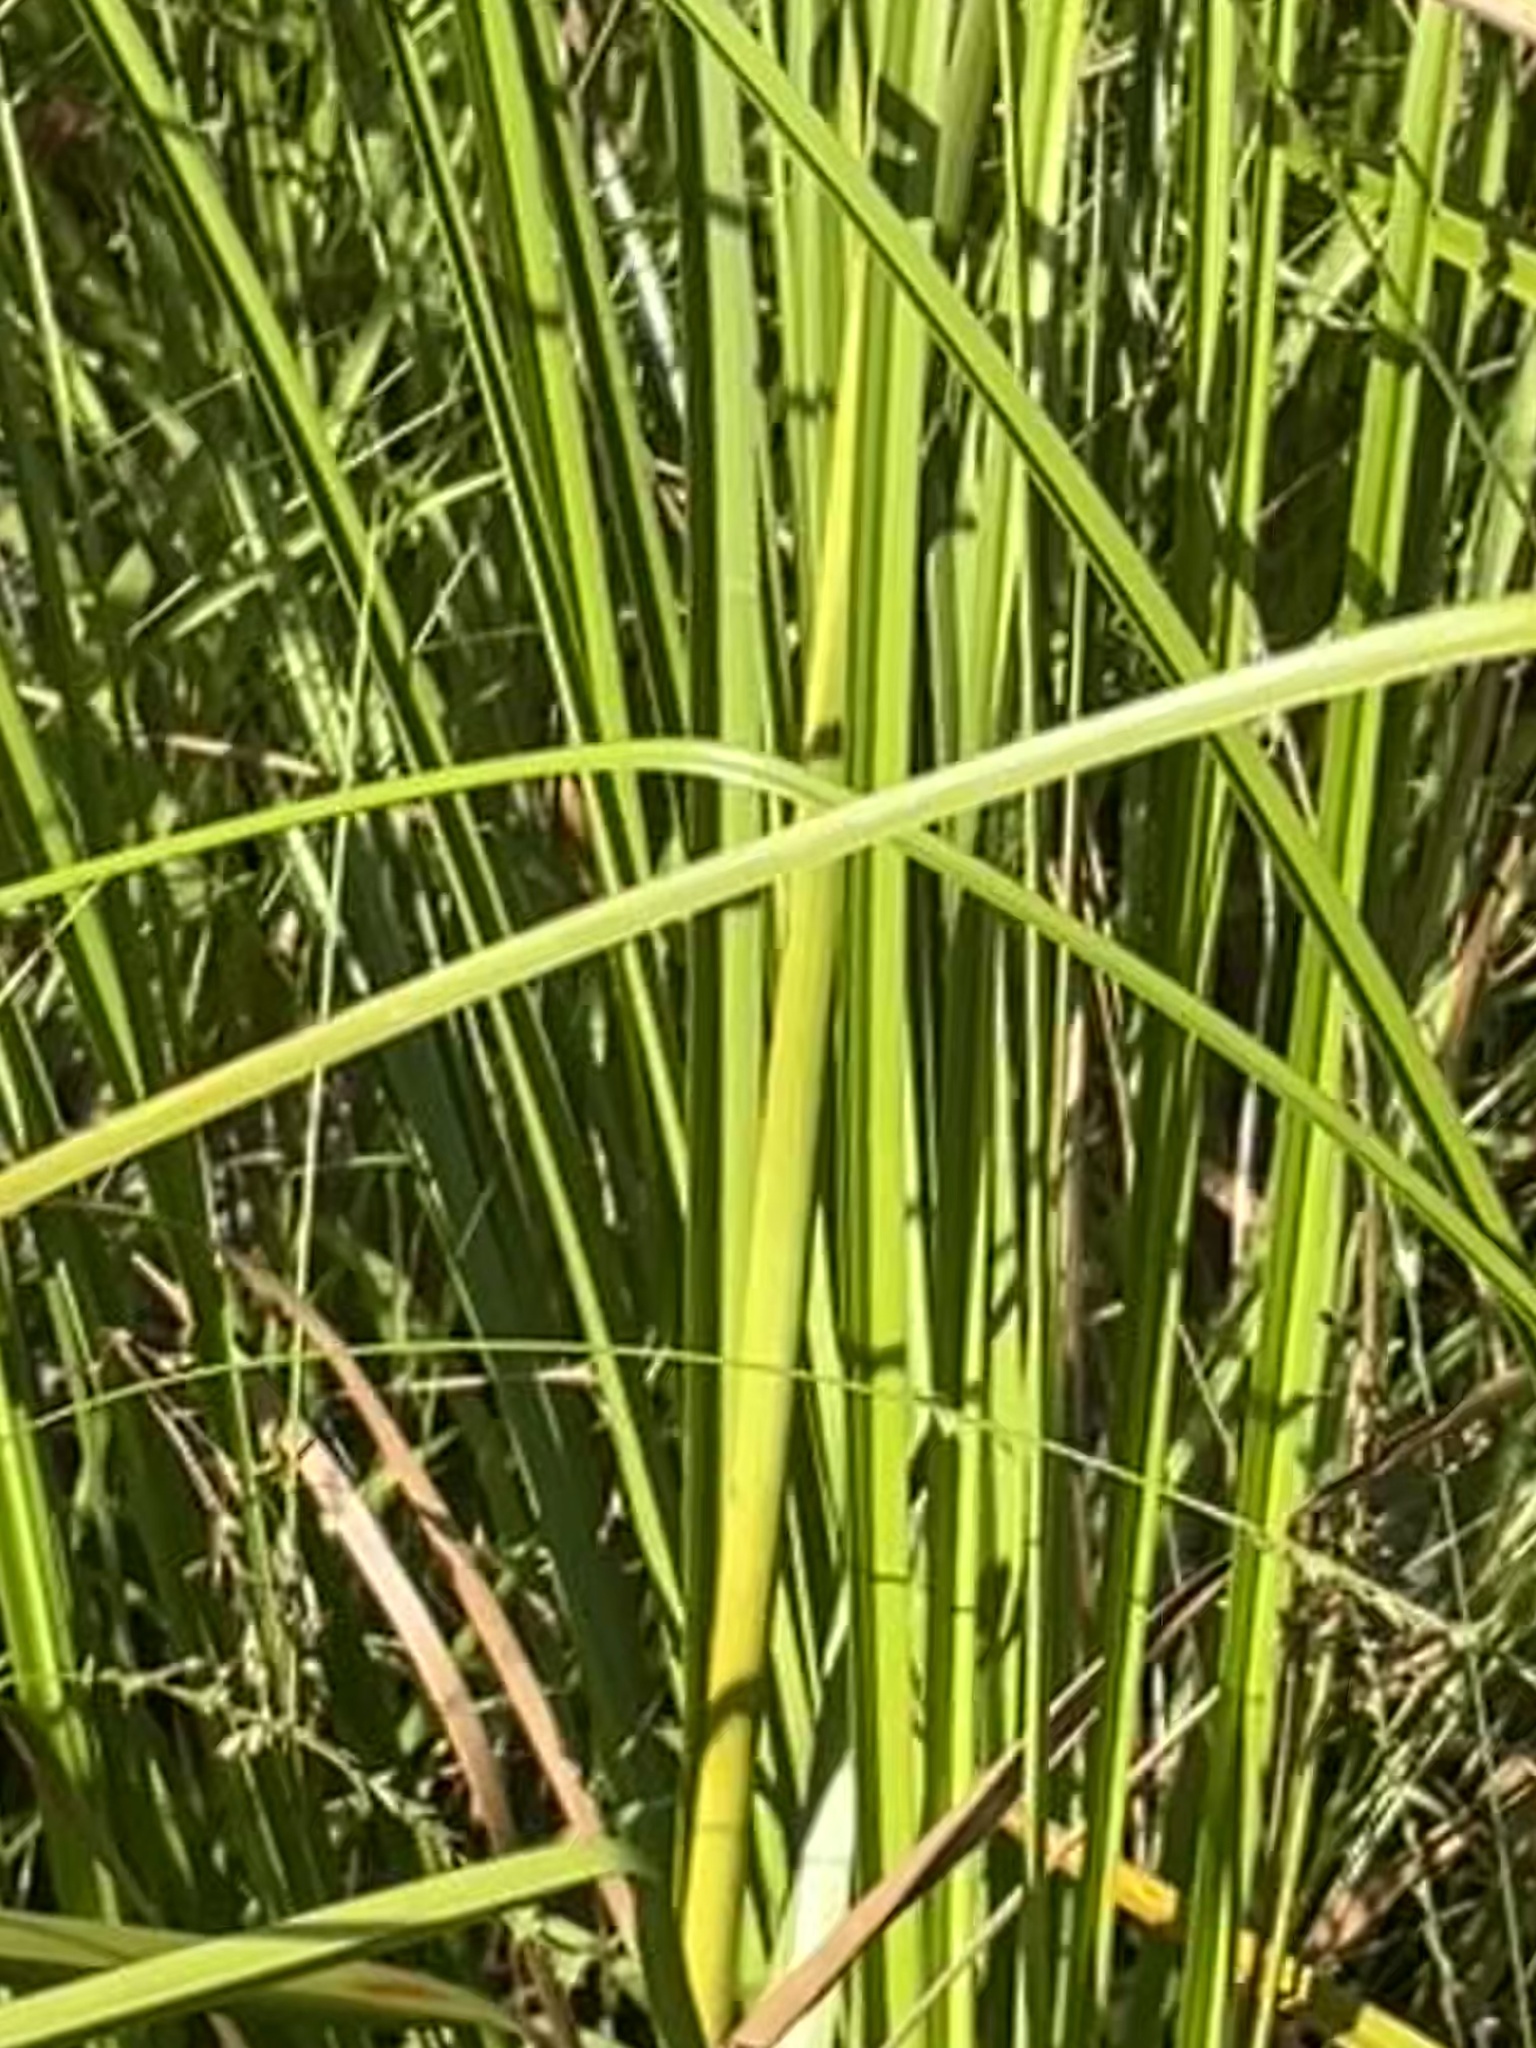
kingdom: Plantae
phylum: Tracheophyta
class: Liliopsida
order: Poales
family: Cyperaceae
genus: Scirpus
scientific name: Scirpus cyperinus
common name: Black-sheathed bulrush
